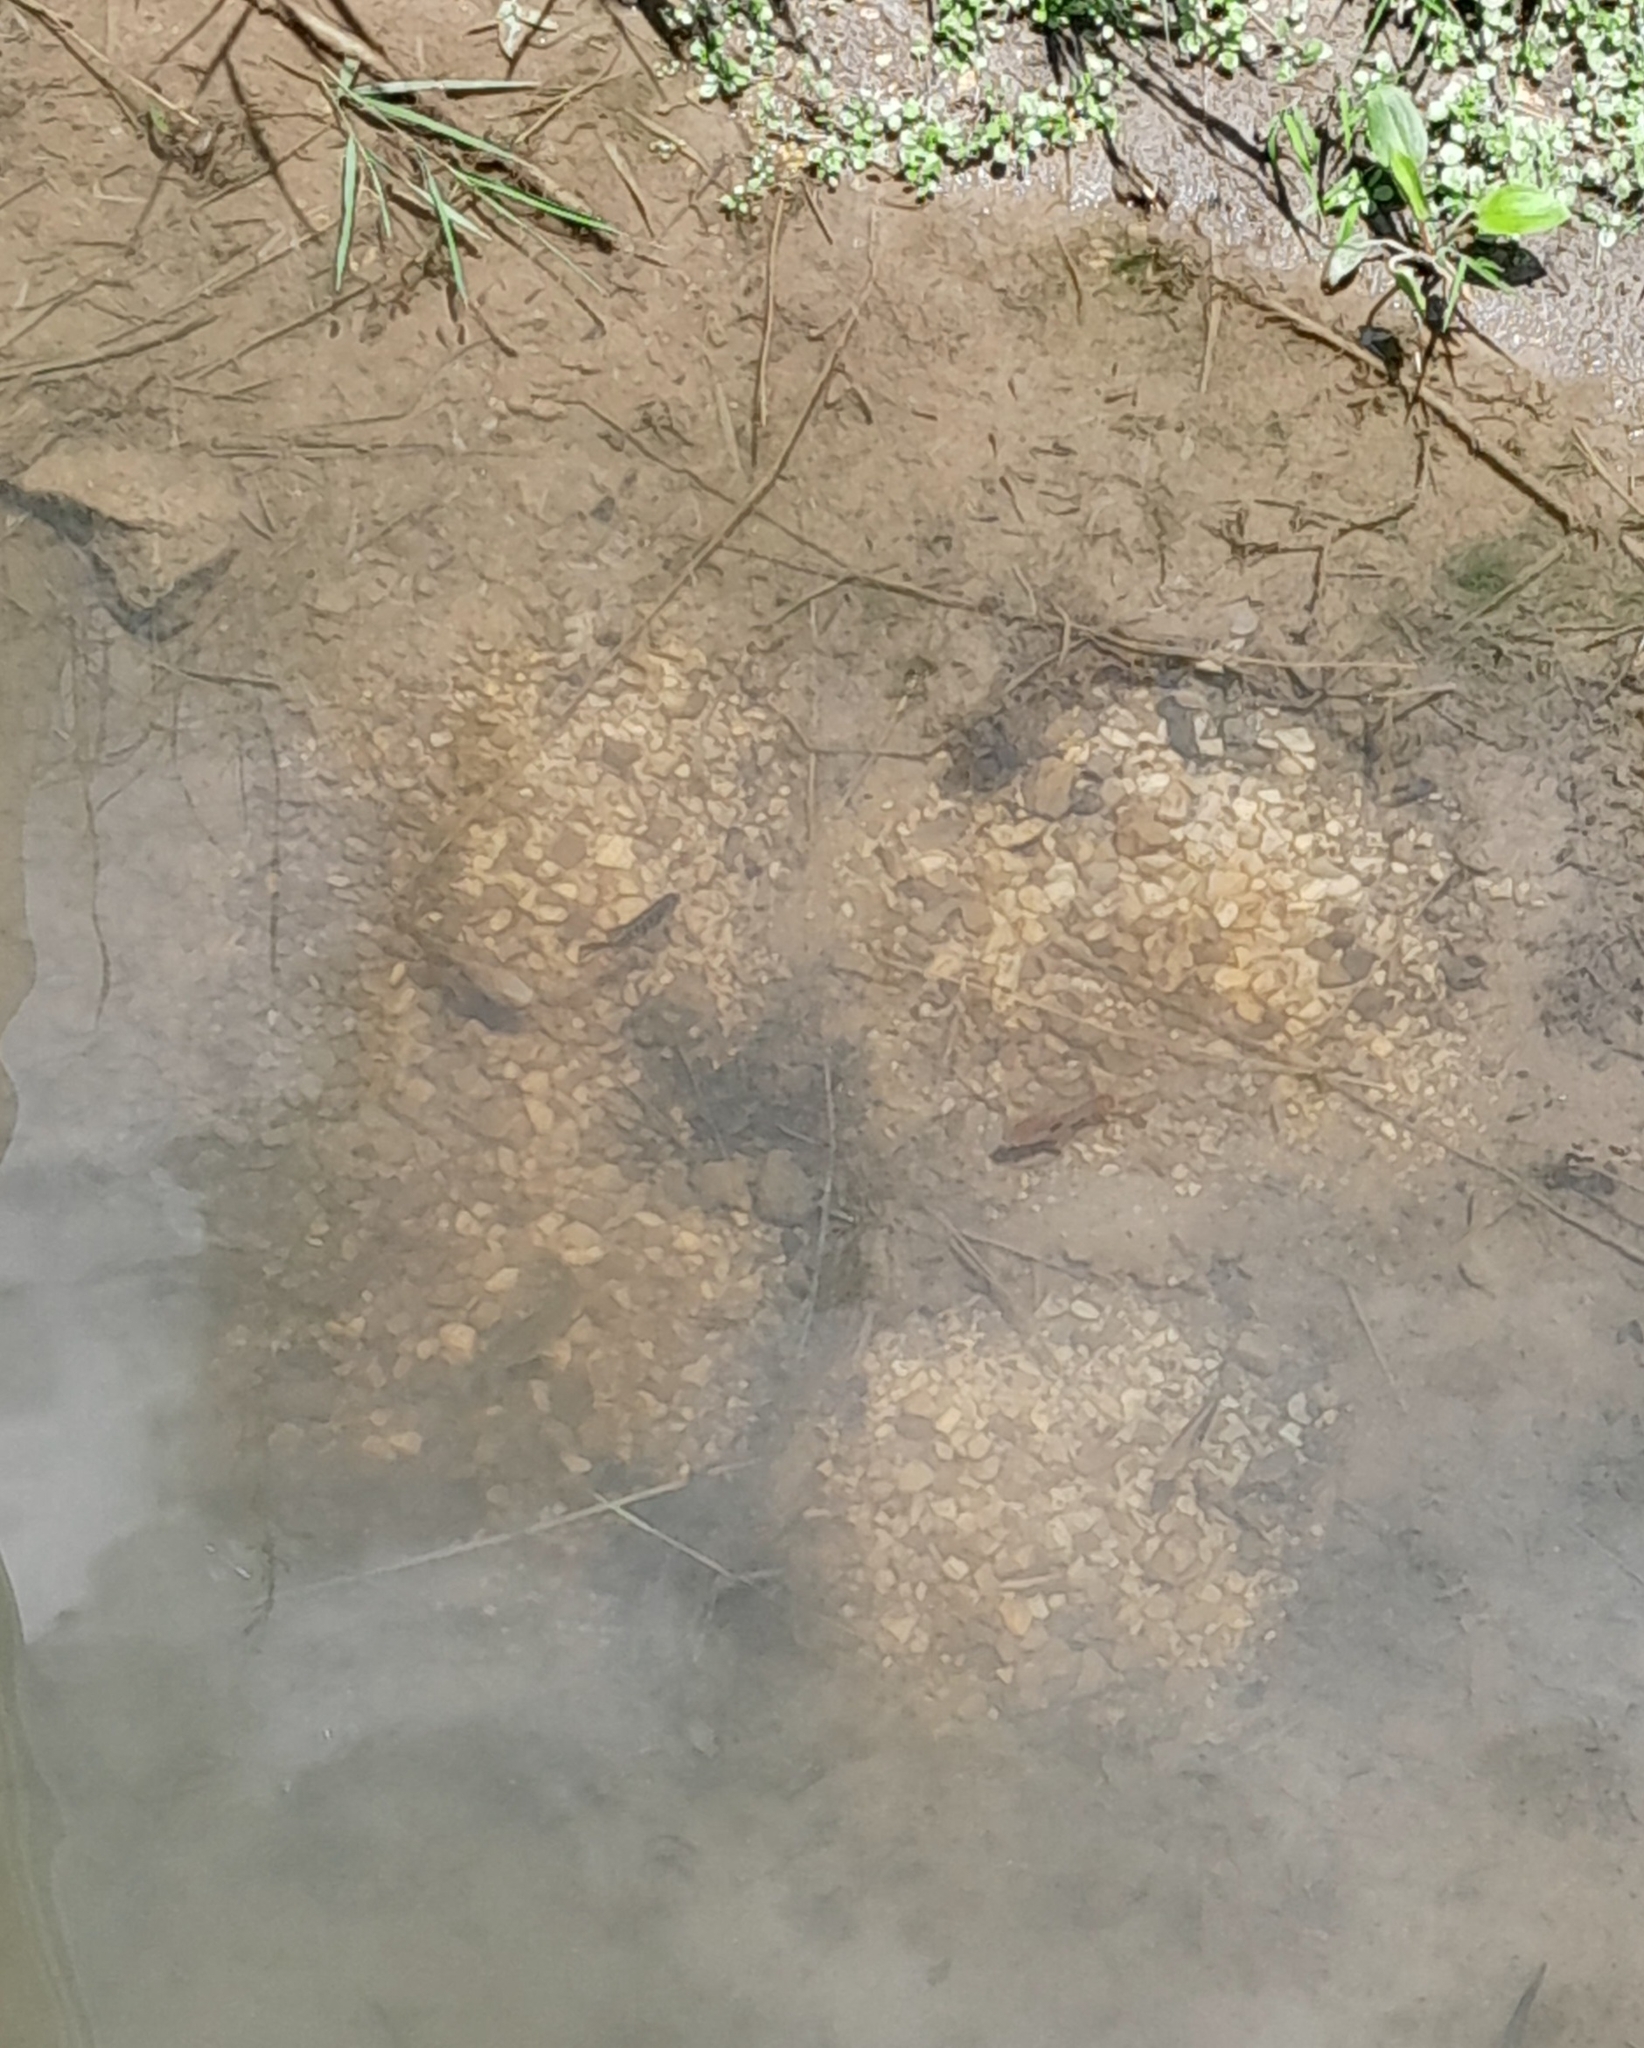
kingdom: Animalia
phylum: Chordata
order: Perciformes
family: Centrarchidae
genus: Lepomis
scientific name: Lepomis
